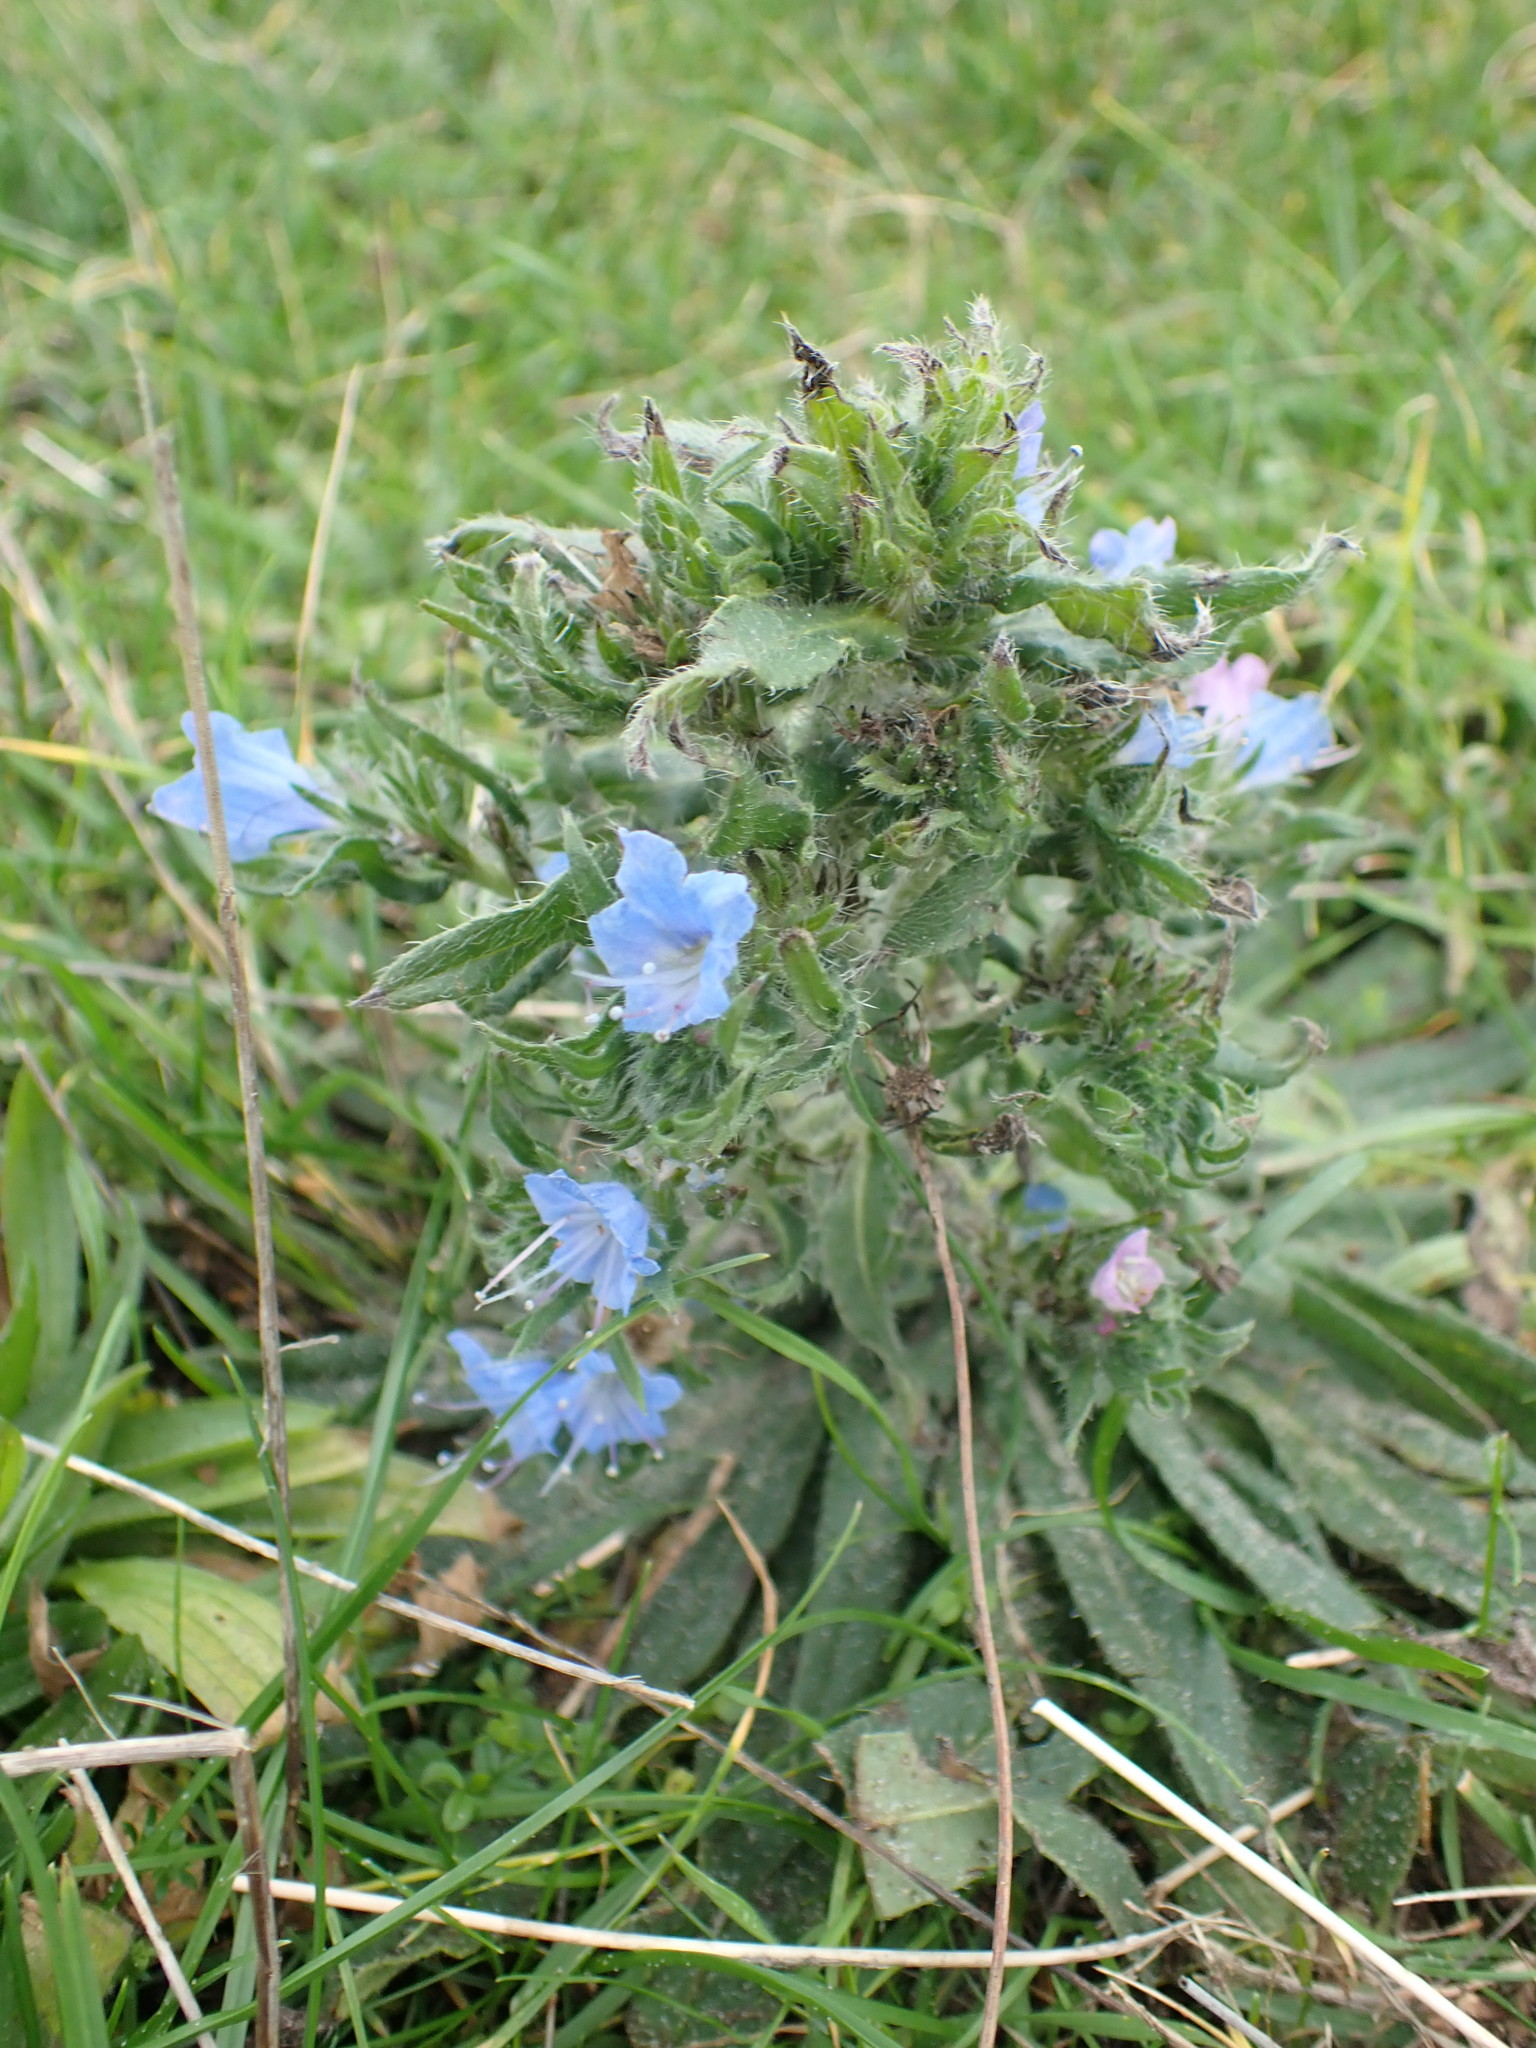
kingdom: Plantae
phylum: Tracheophyta
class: Magnoliopsida
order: Boraginales
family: Boraginaceae
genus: Echium
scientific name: Echium vulgare
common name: Common viper's bugloss
